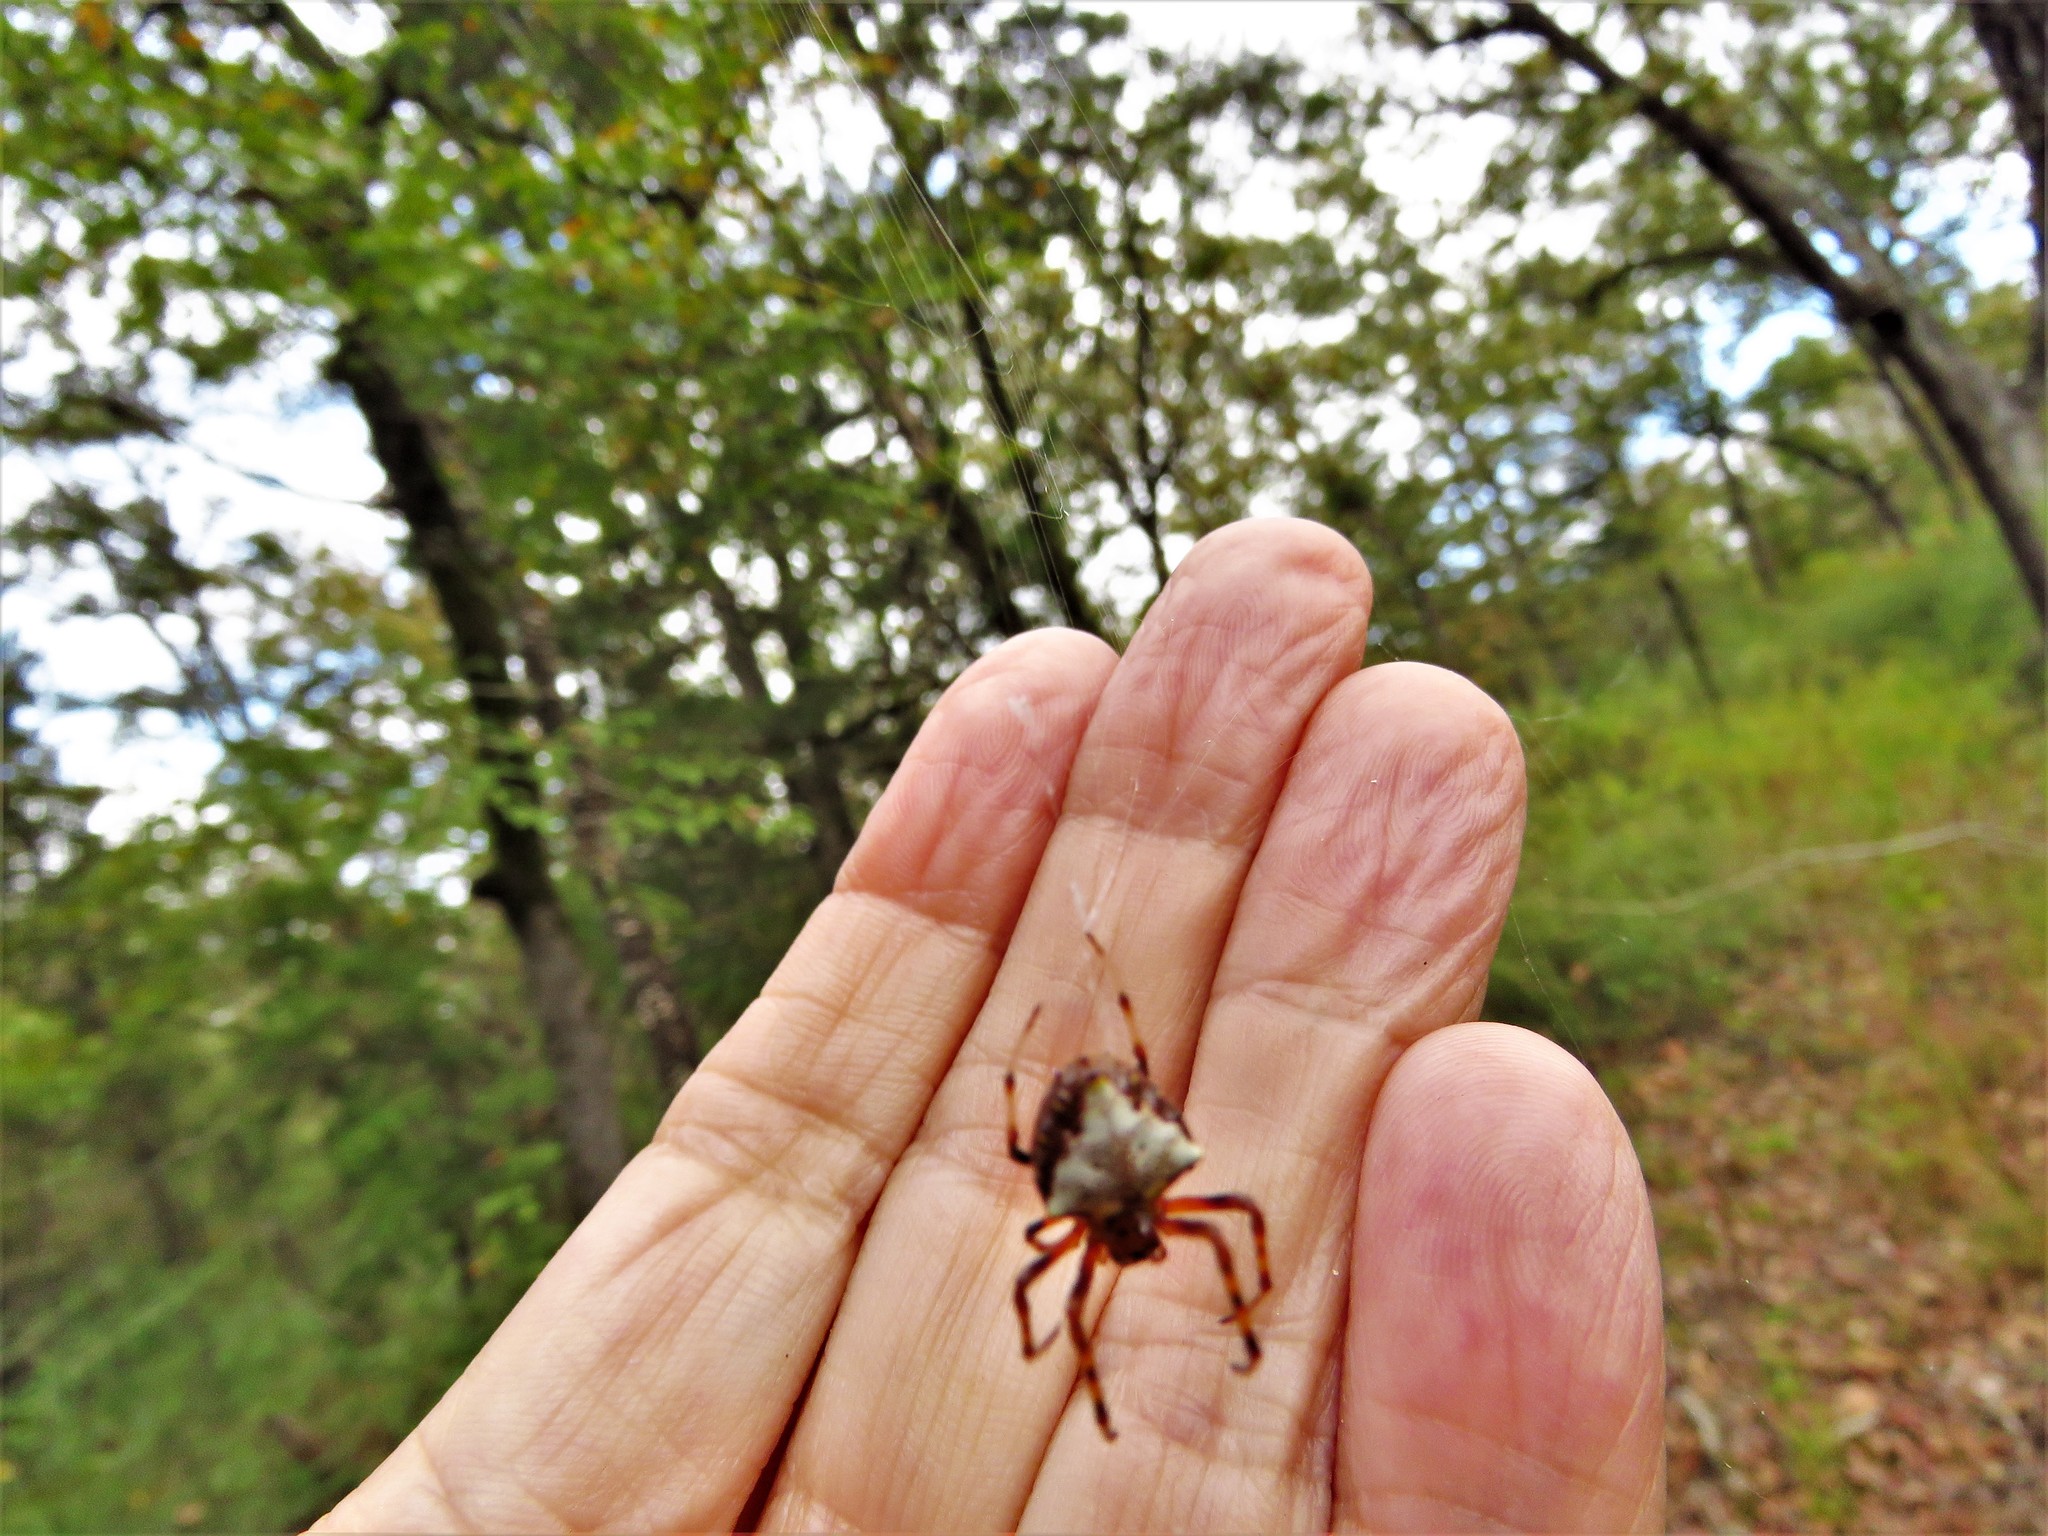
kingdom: Animalia
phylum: Arthropoda
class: Arachnida
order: Araneae
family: Araneidae
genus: Verrucosa
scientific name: Verrucosa arenata
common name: Orb weavers
